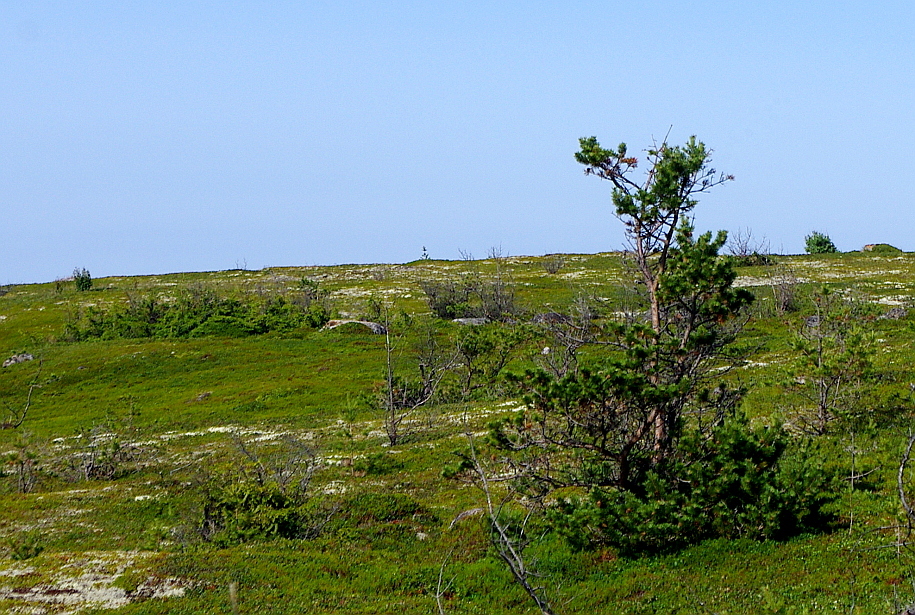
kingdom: Plantae
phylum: Tracheophyta
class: Pinopsida
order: Pinales
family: Pinaceae
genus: Pinus
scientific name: Pinus sylvestris
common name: Scots pine
